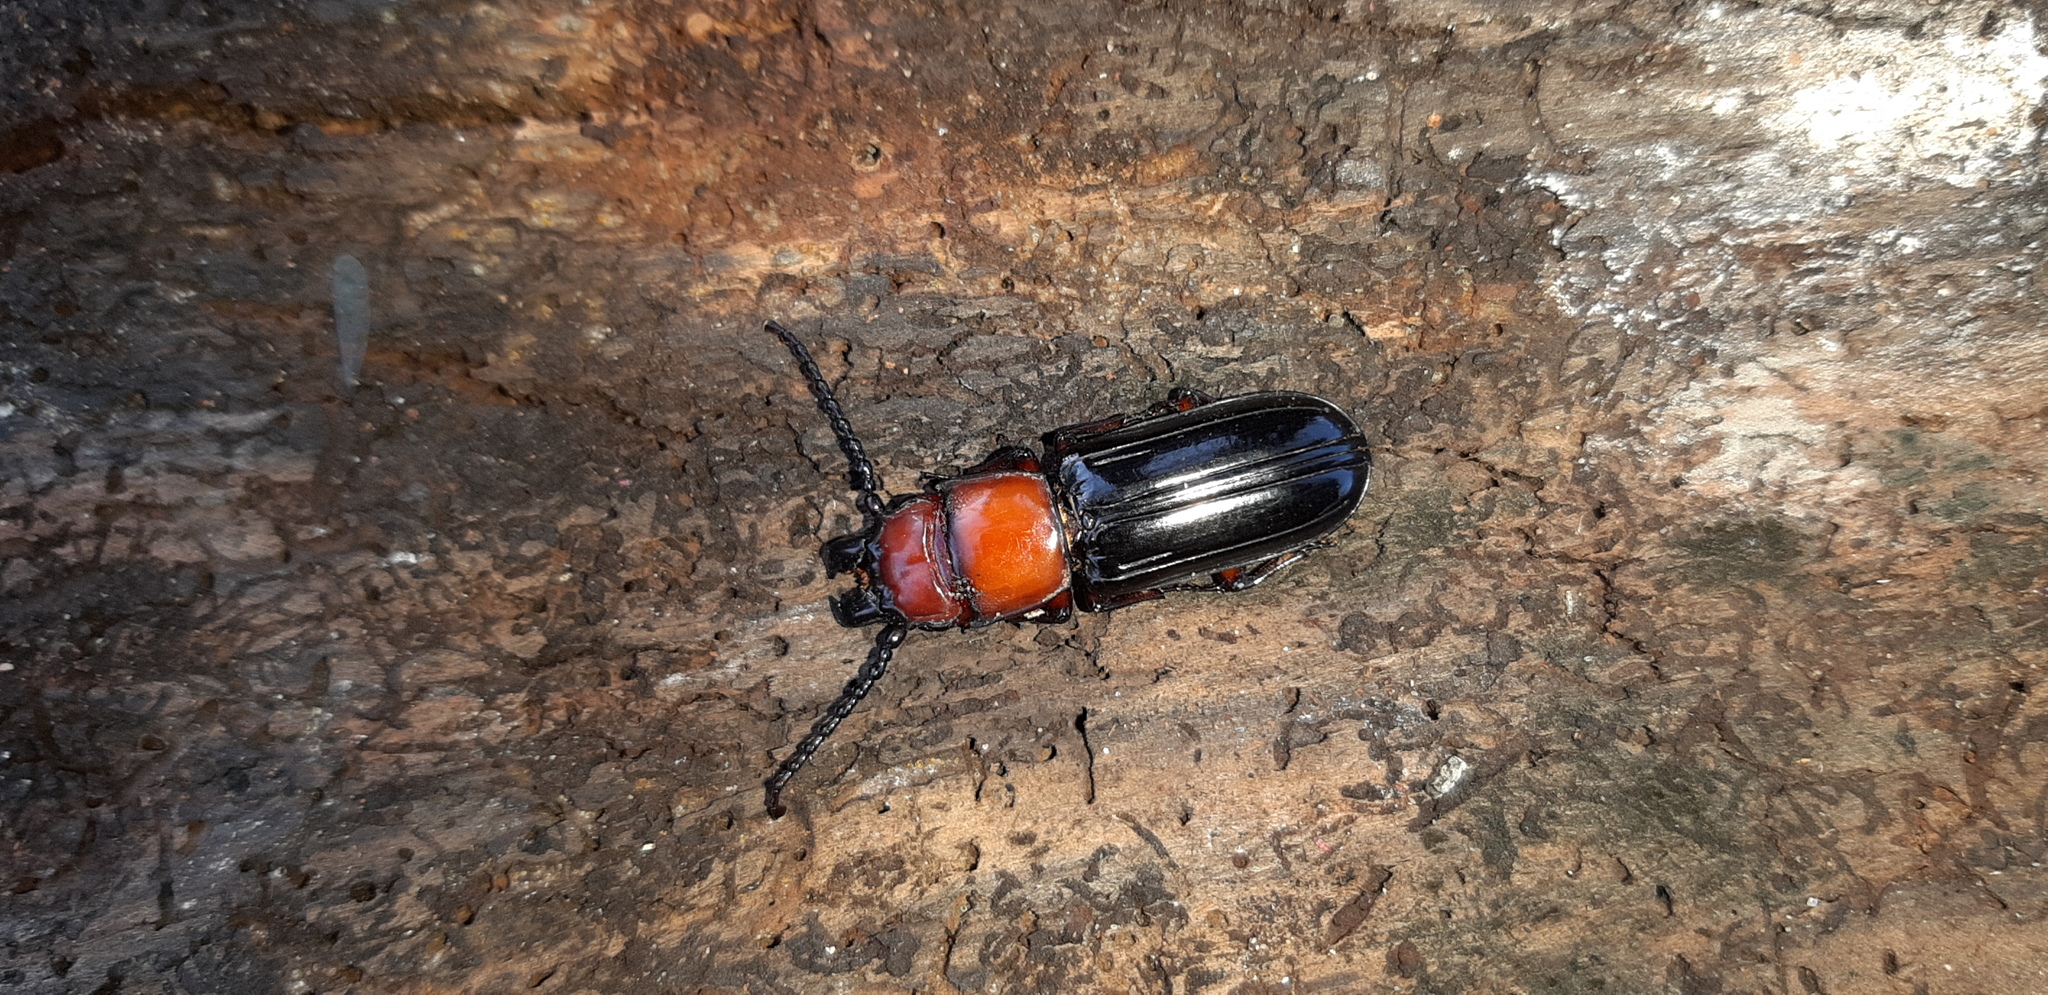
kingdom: Animalia
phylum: Arthropoda
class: Insecta
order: Coleoptera
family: Passandridae
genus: Passandra
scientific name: Passandra sexstriata
